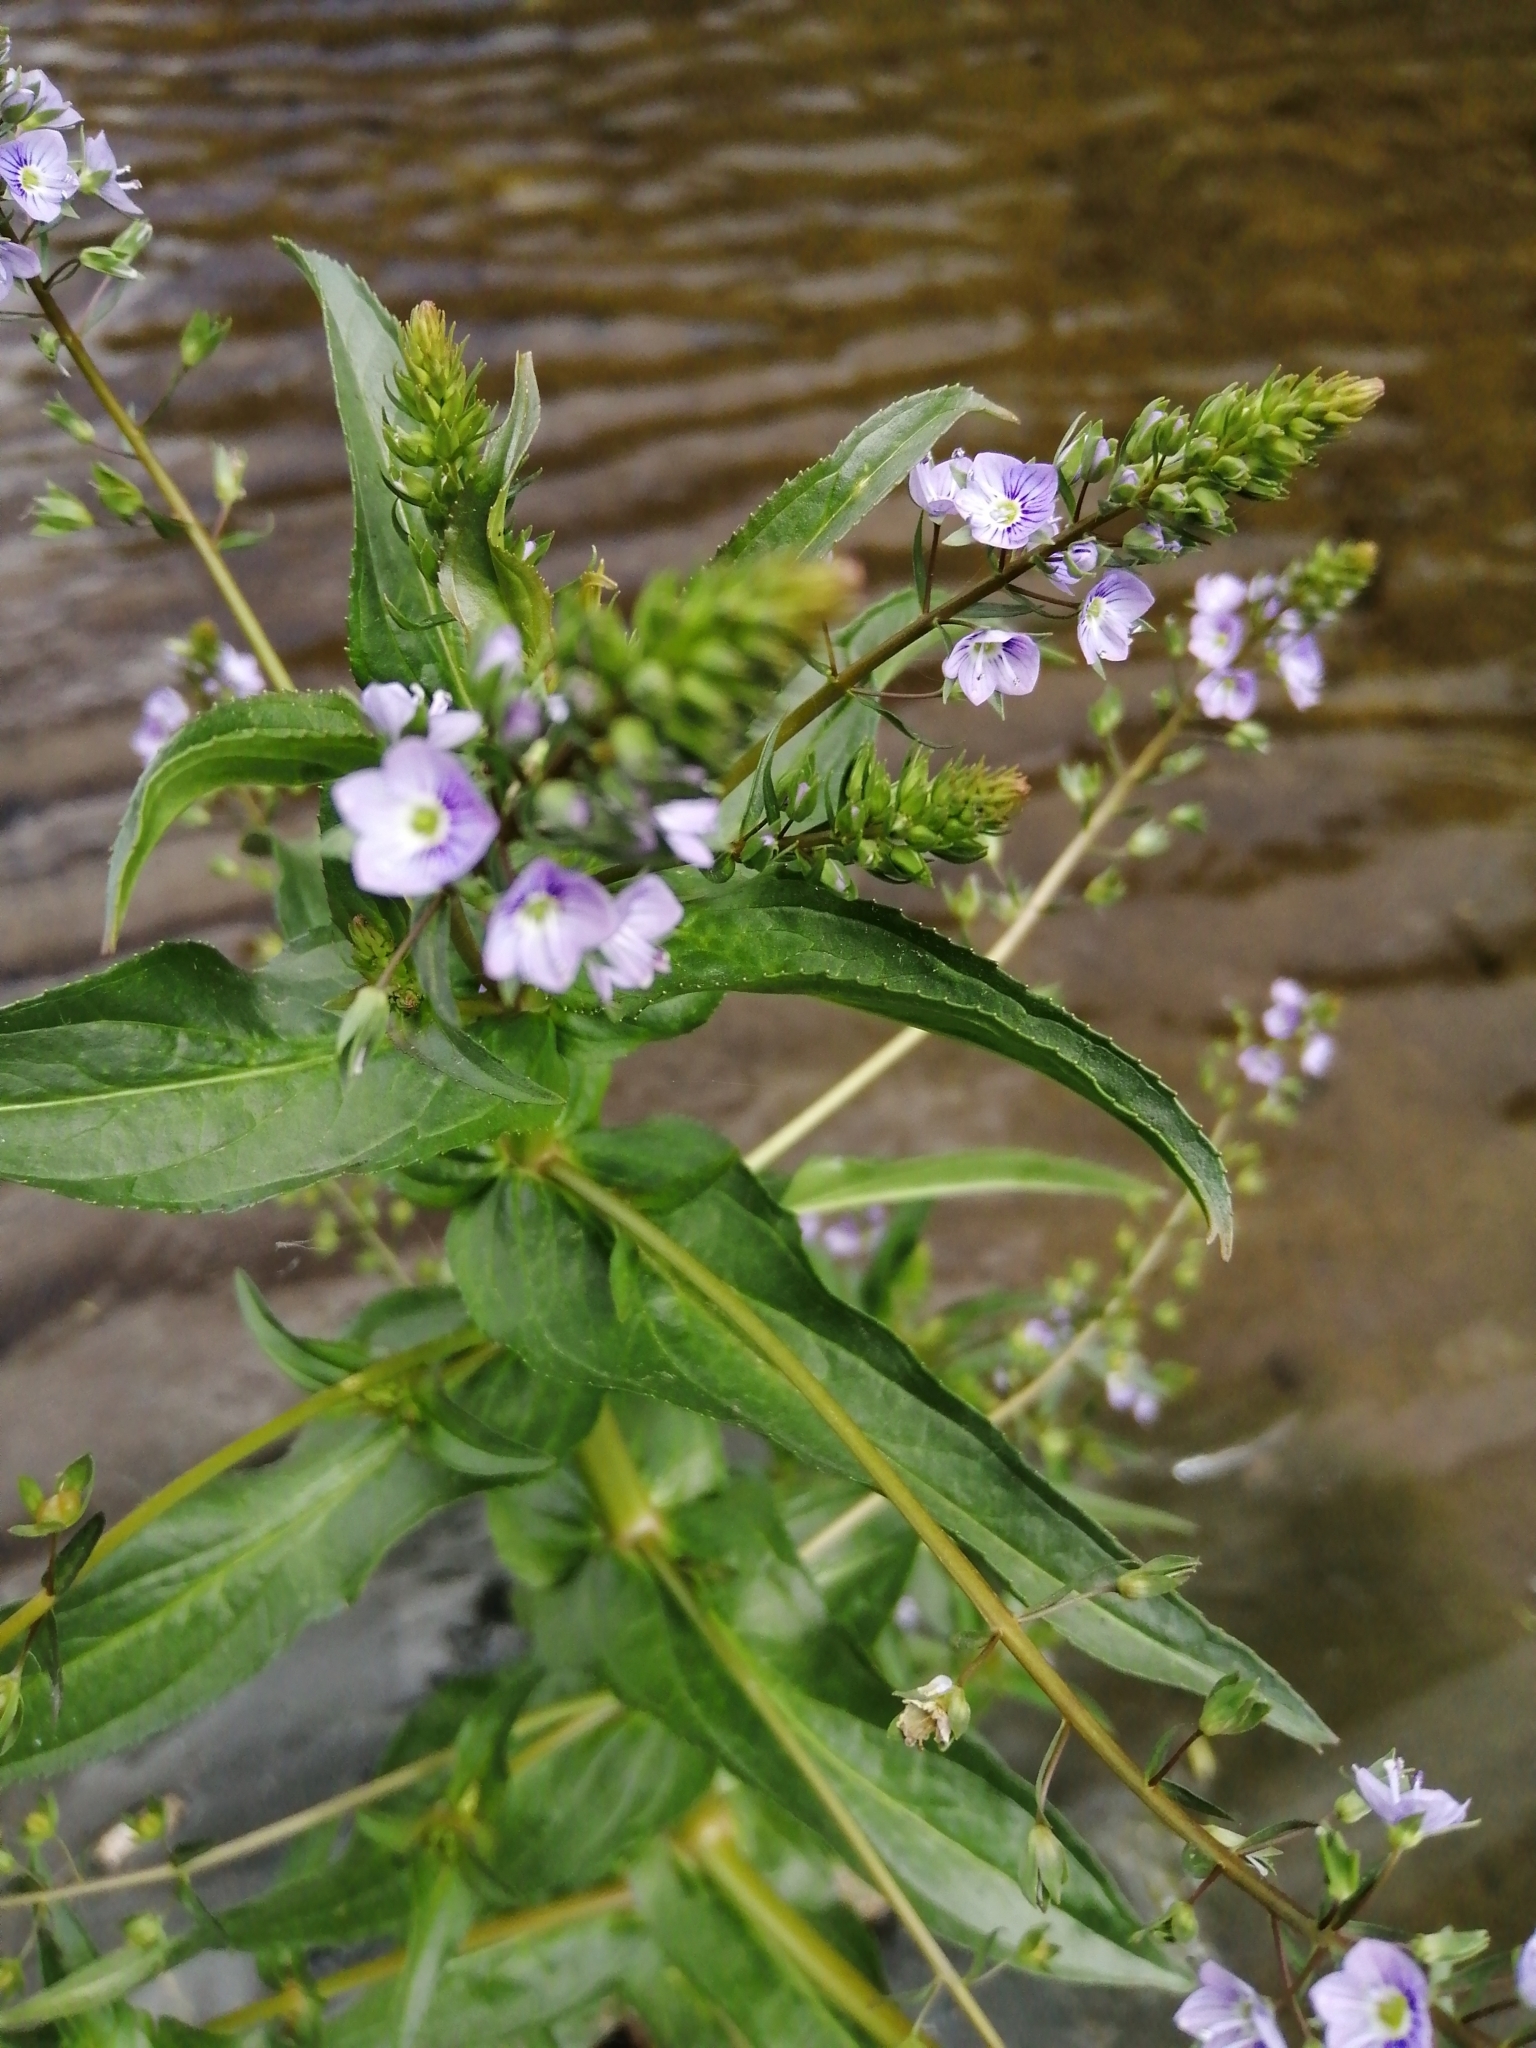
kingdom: Plantae
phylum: Tracheophyta
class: Magnoliopsida
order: Lamiales
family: Plantaginaceae
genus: Veronica
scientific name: Veronica anagallis-aquatica
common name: Water speedwell
